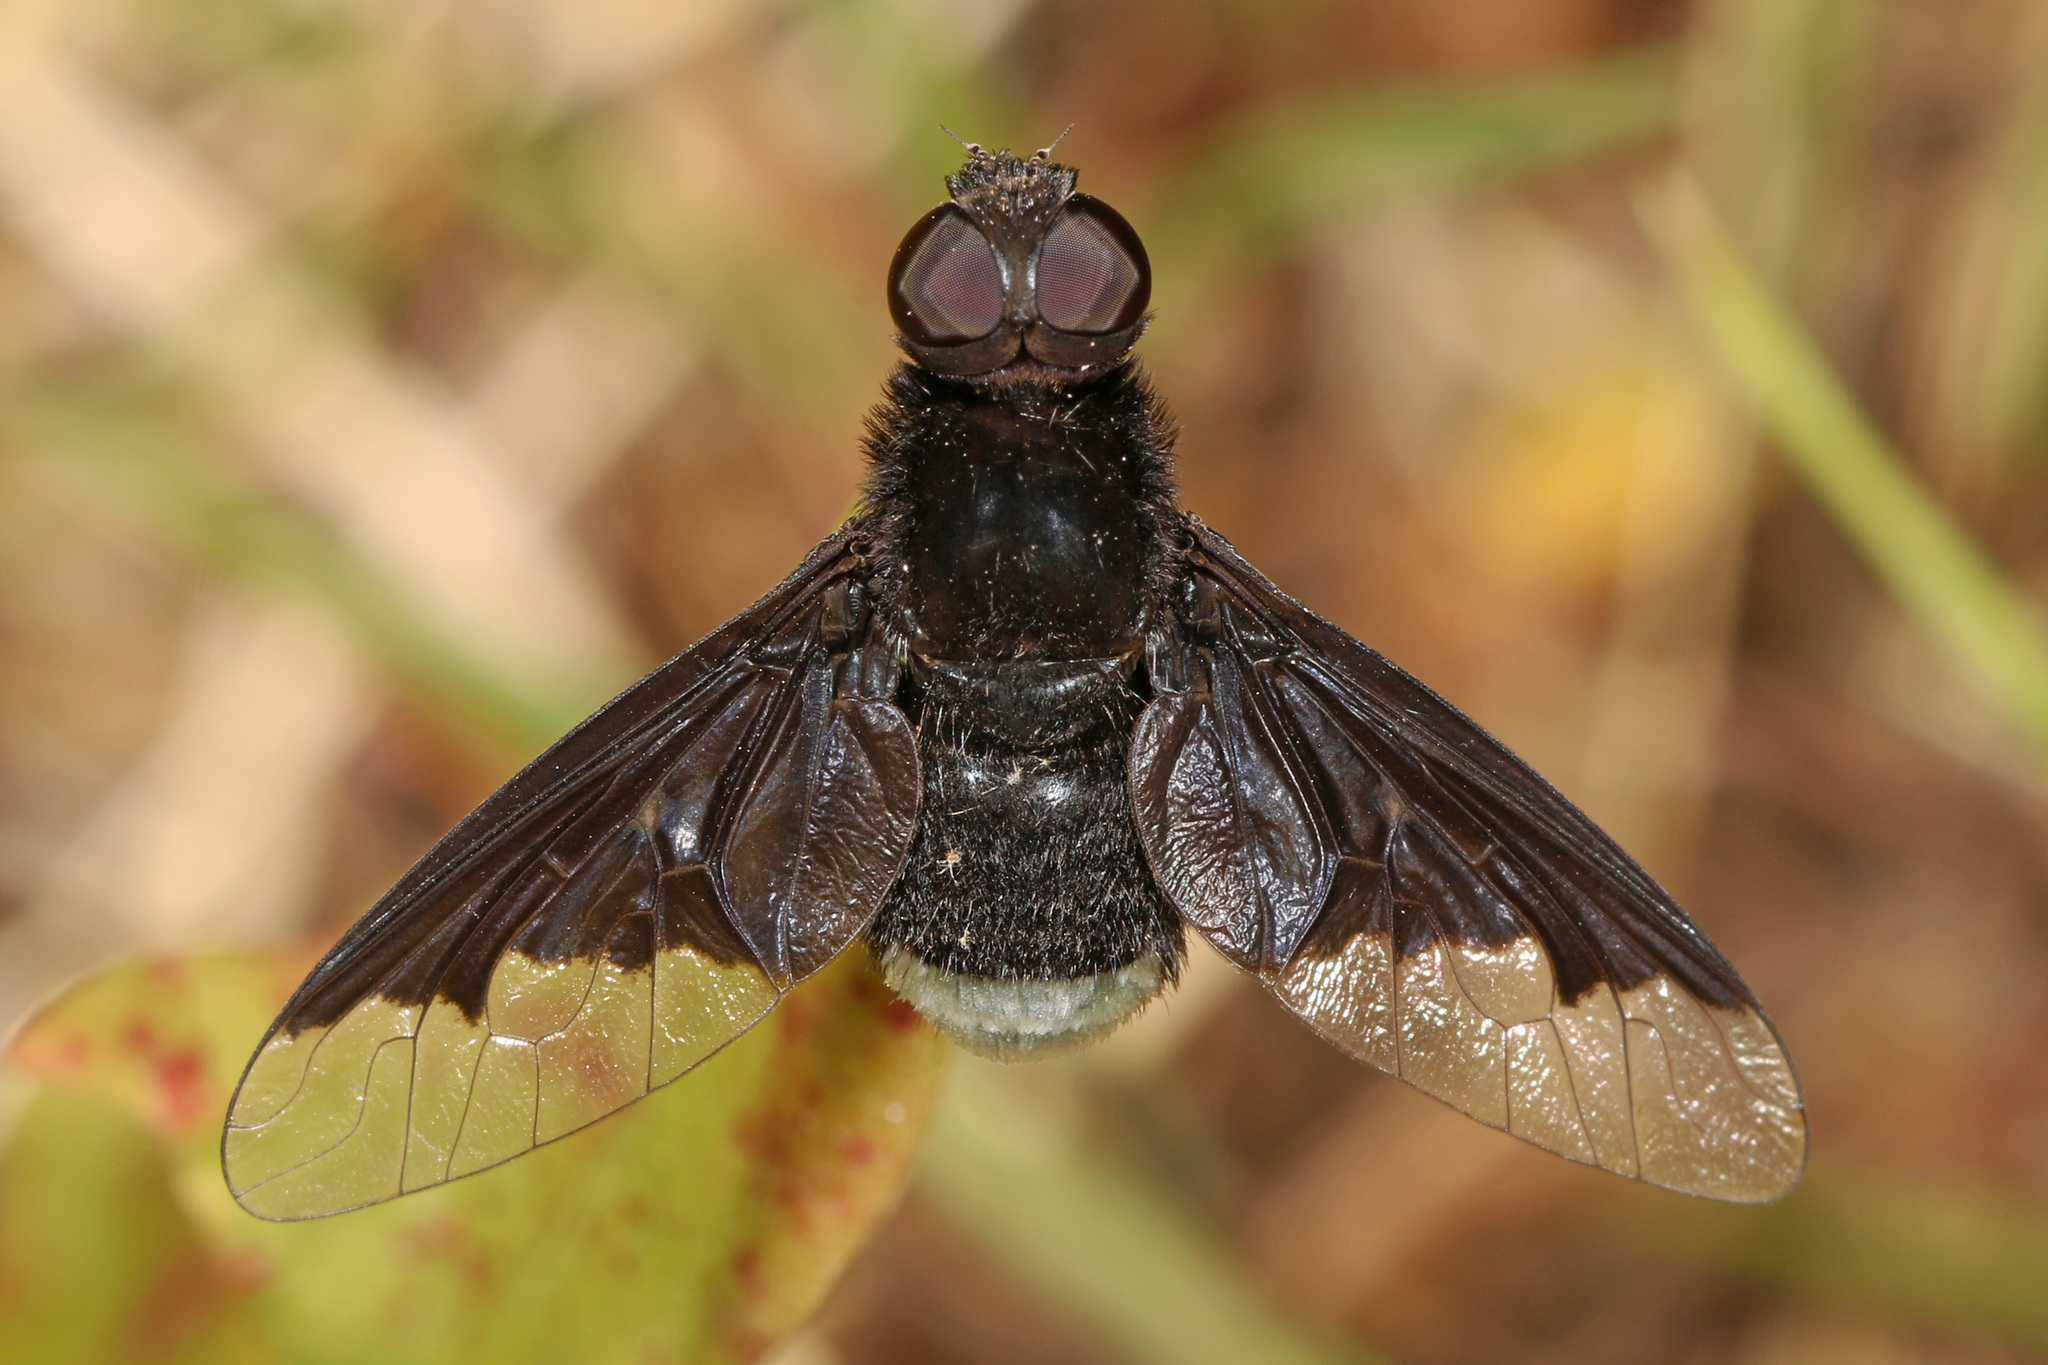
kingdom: Animalia
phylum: Arthropoda
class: Insecta
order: Diptera
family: Bombyliidae
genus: Anthrax
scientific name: Anthrax analis
